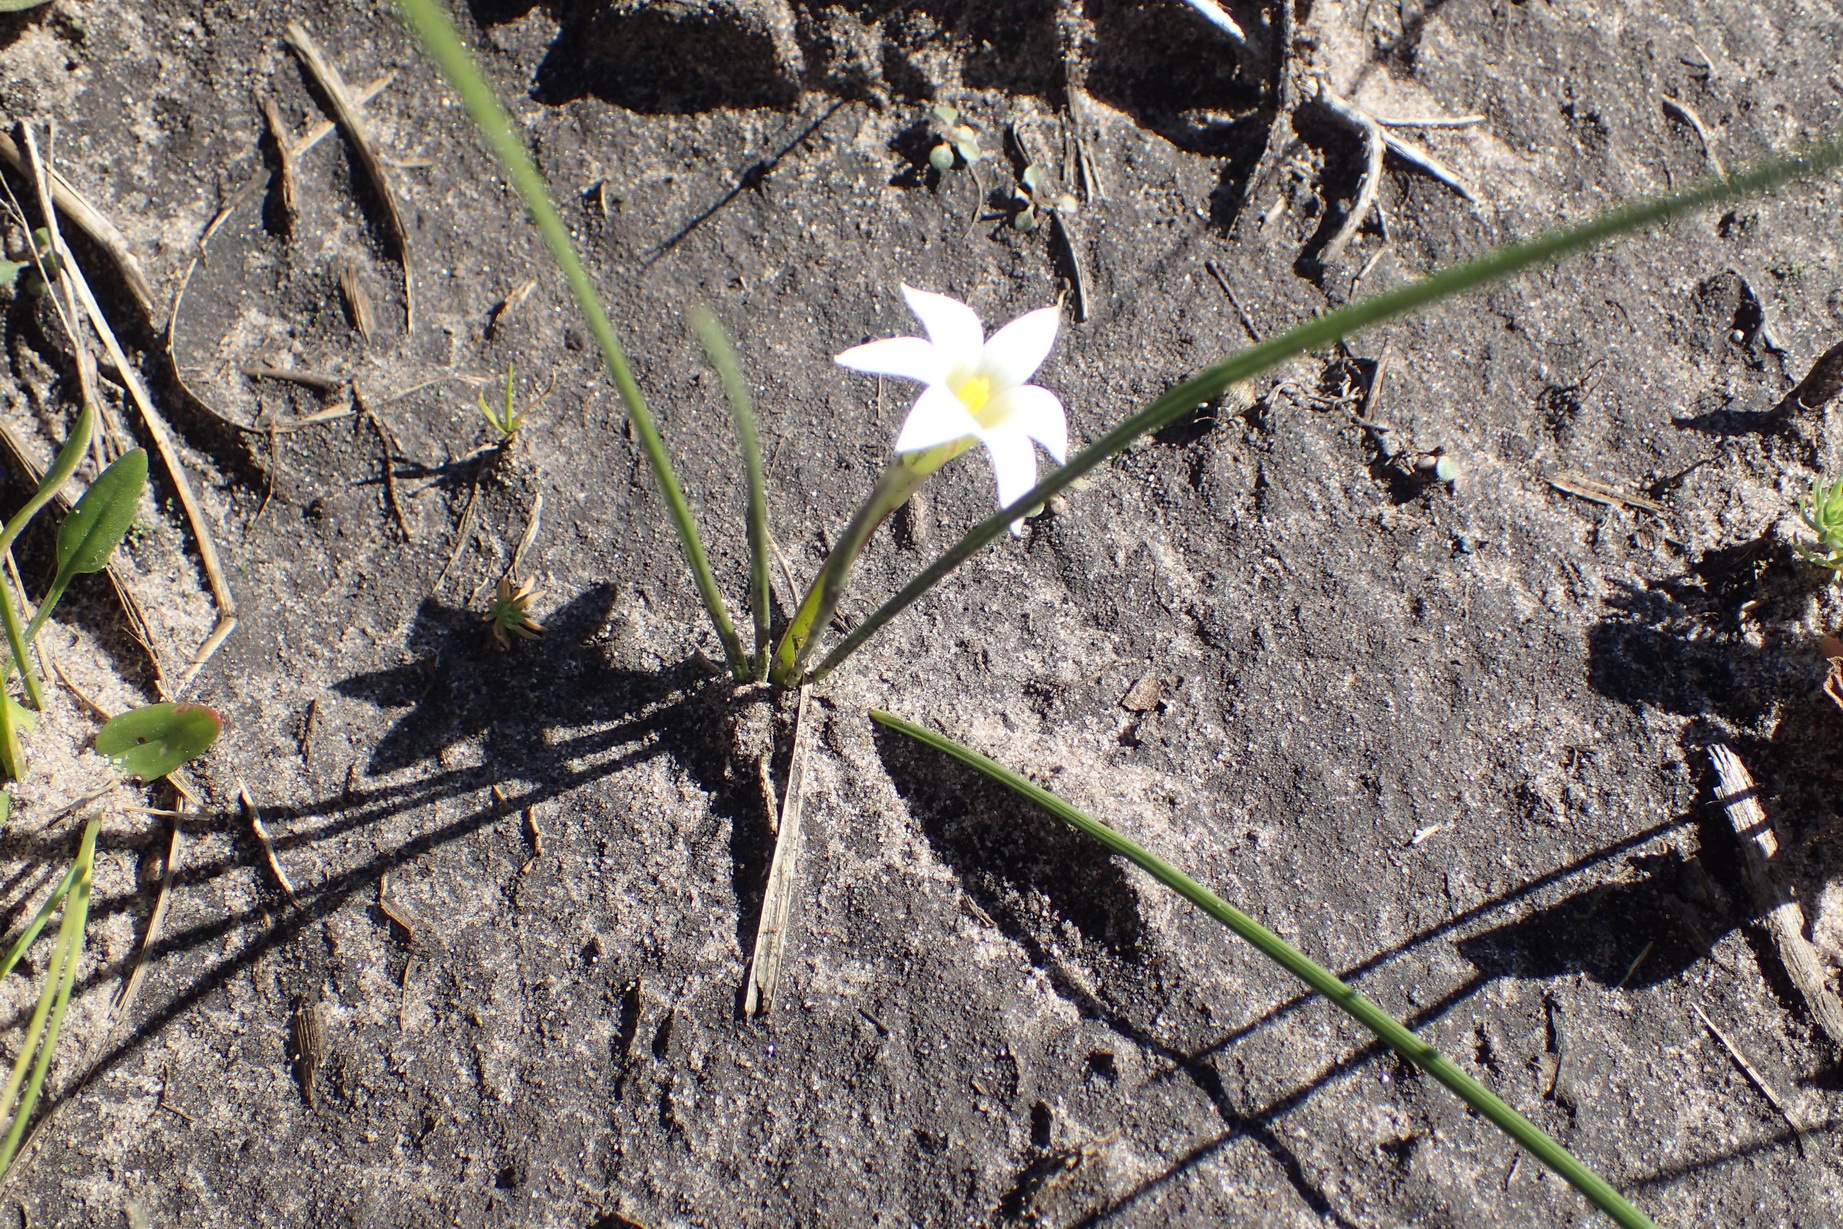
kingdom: Plantae
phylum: Tracheophyta
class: Liliopsida
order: Asparagales
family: Iridaceae
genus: Romulea
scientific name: Romulea flava
